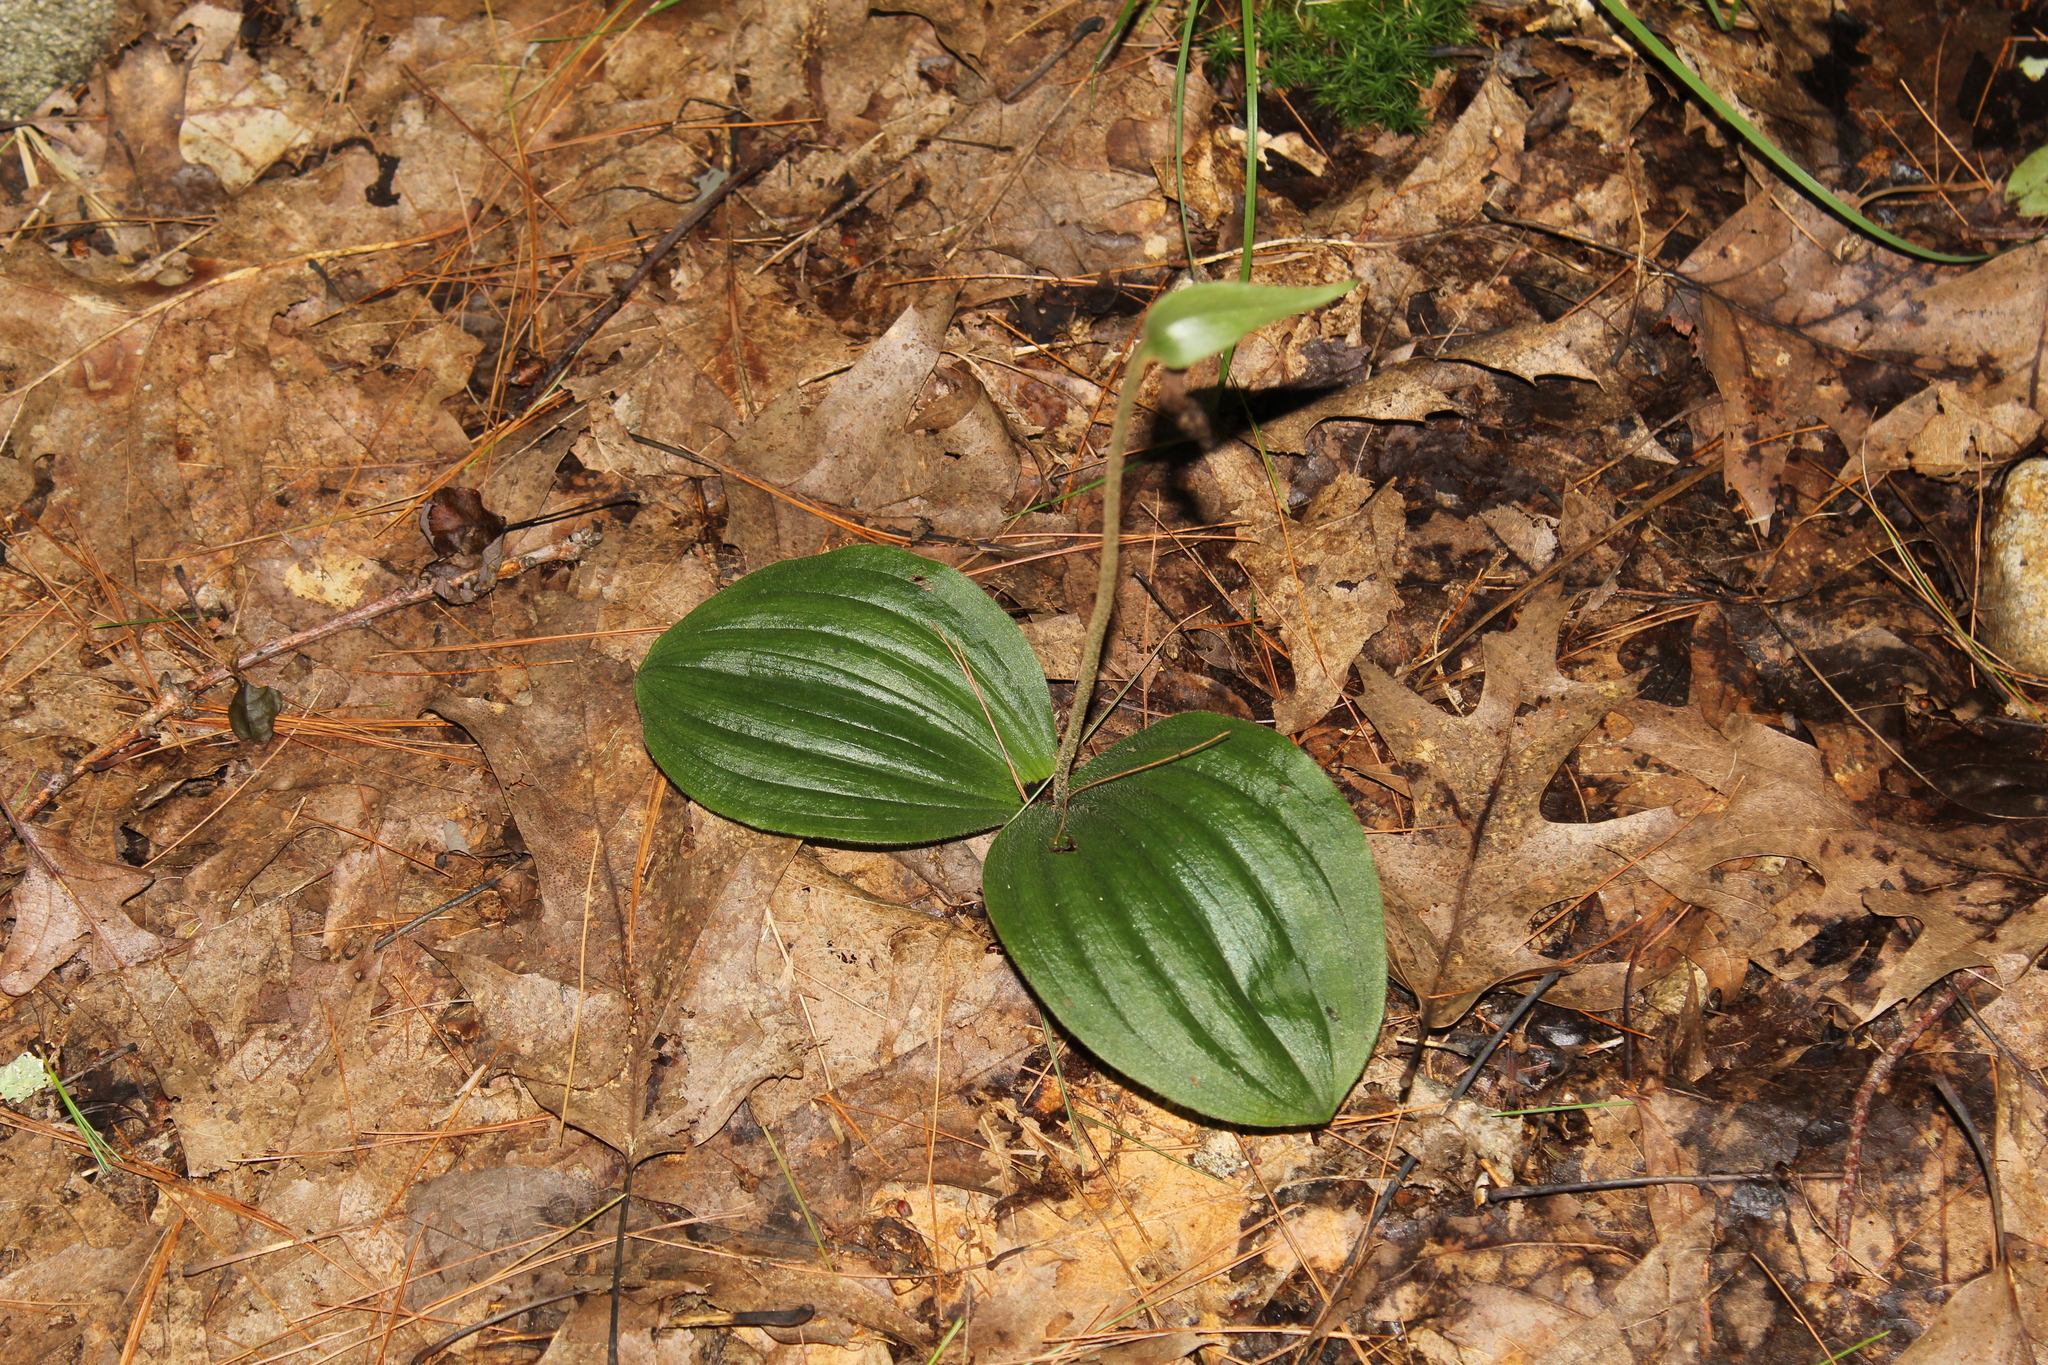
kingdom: Plantae
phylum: Tracheophyta
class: Liliopsida
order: Asparagales
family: Orchidaceae
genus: Cypripedium
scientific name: Cypripedium acaule
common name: Pink lady's-slipper
